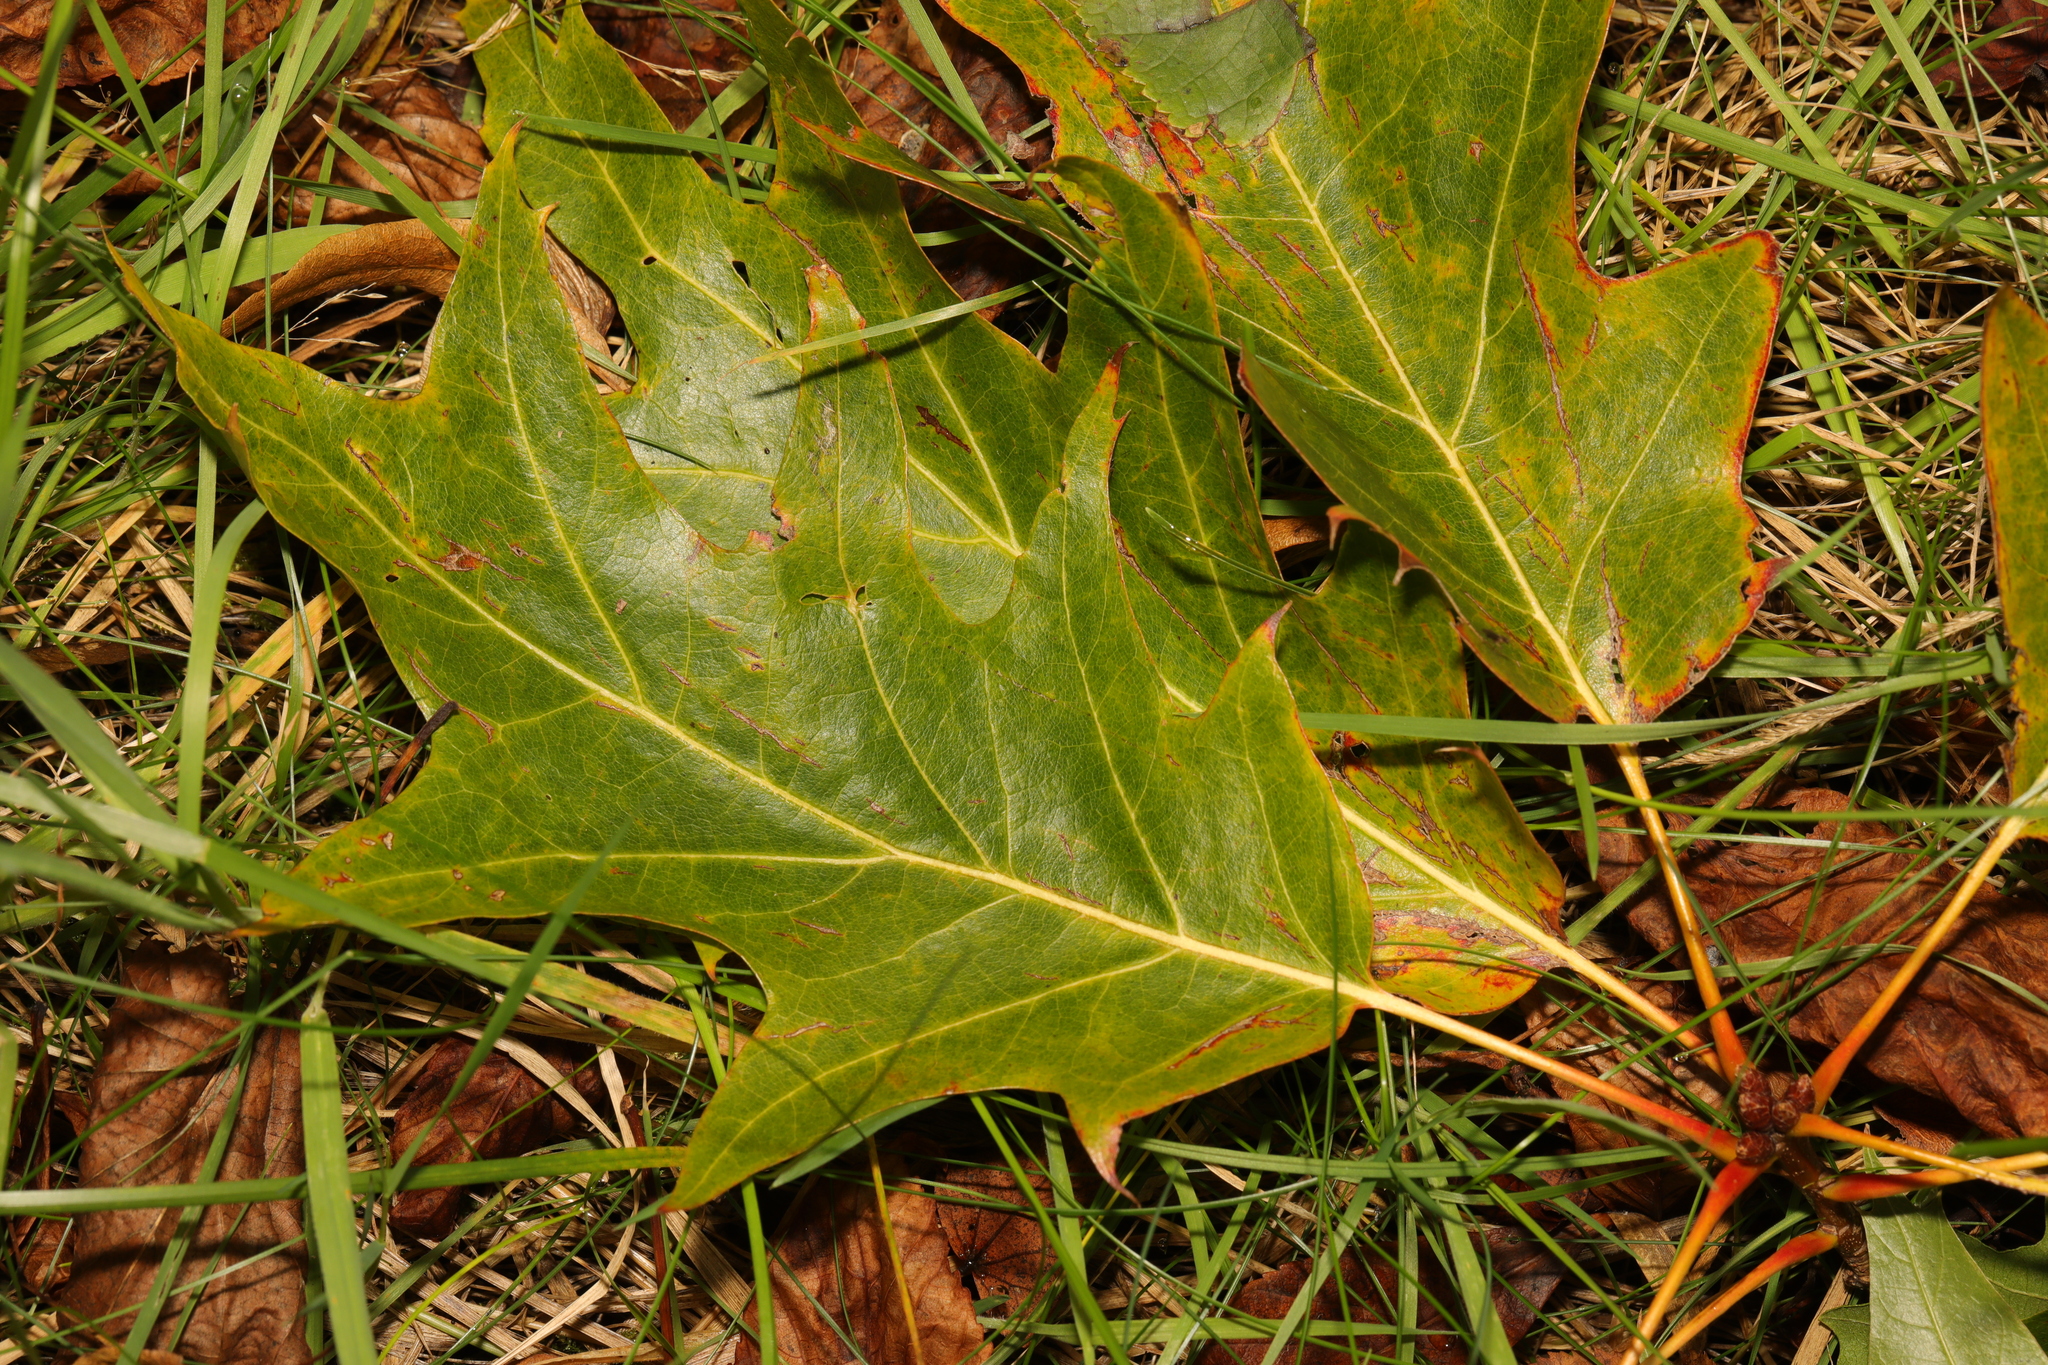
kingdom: Plantae
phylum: Tracheophyta
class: Magnoliopsida
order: Fagales
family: Fagaceae
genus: Quercus
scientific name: Quercus rubra
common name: Red oak
